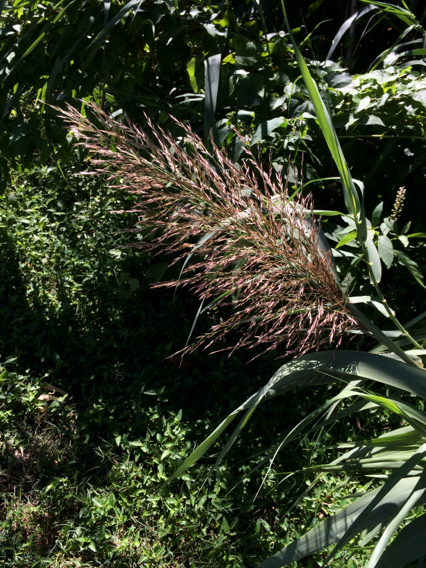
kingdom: Plantae
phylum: Tracheophyta
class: Liliopsida
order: Poales
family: Poaceae
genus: Arundo
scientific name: Arundo donax
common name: Giant reed
